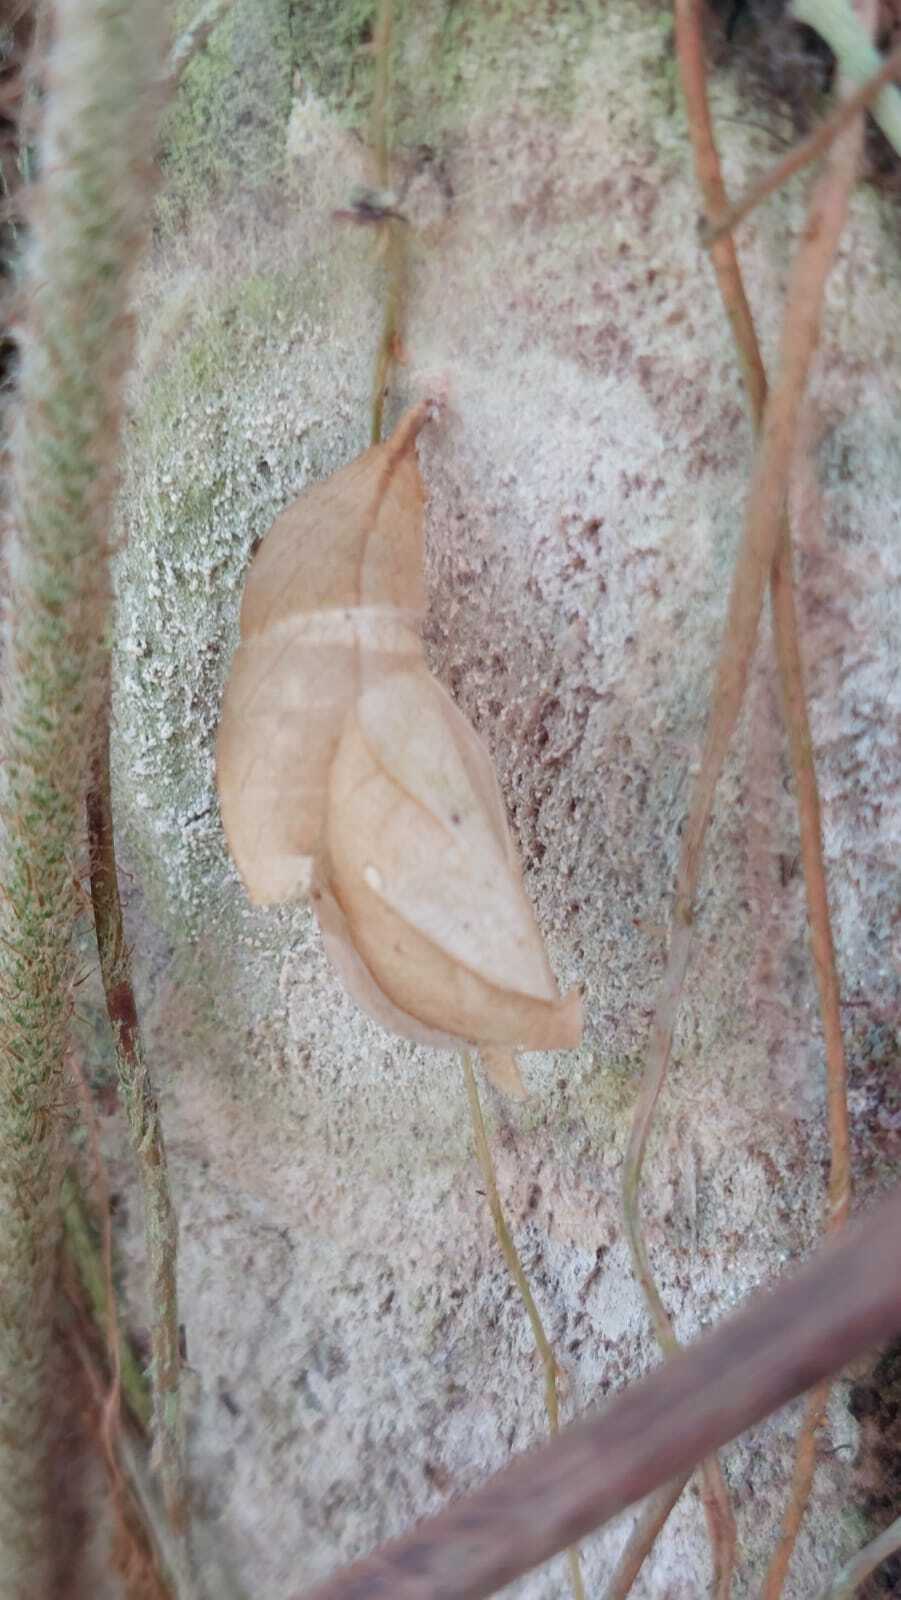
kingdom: Animalia
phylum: Arthropoda
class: Insecta
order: Lepidoptera
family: Nymphalidae
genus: Opsiphanes
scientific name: Opsiphanes cassina
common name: Split-banded owl-butterfly
